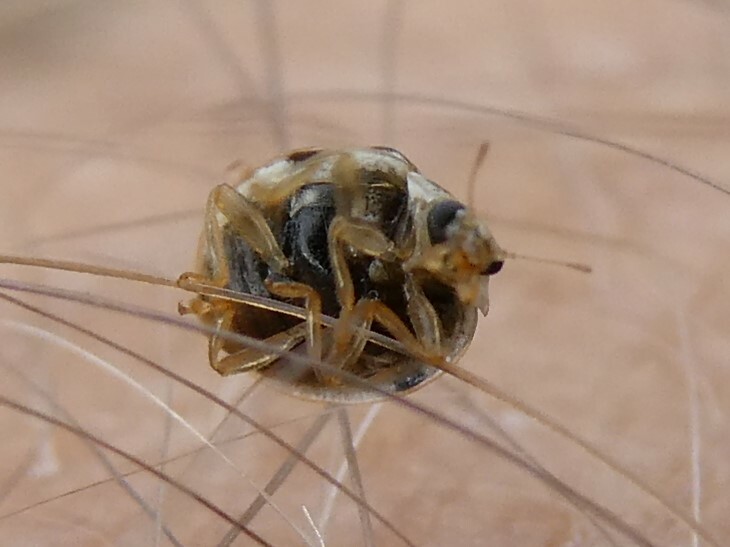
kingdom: Animalia
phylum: Arthropoda
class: Insecta
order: Coleoptera
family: Coccinellidae
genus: Psyllobora
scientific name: Psyllobora vigintimaculata
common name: Ladybird beetle
